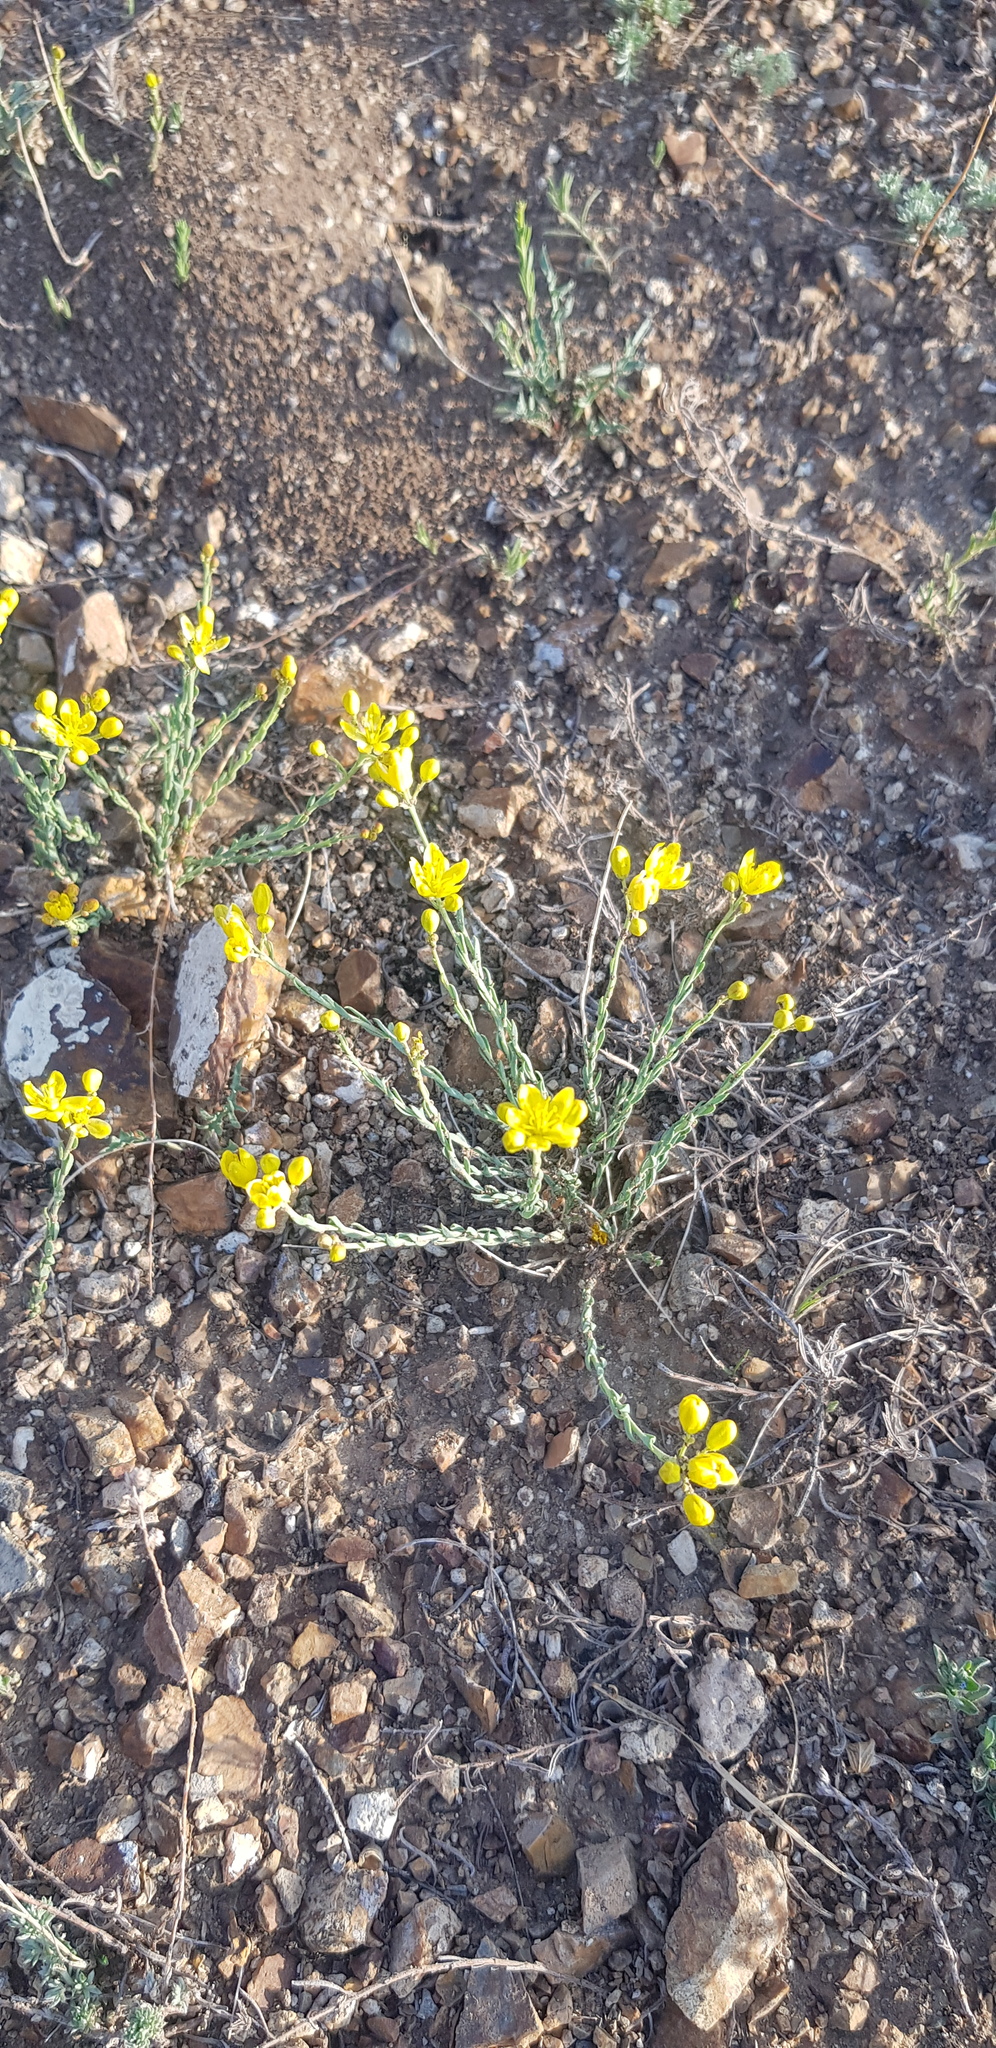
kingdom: Plantae
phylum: Tracheophyta
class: Magnoliopsida
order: Sapindales
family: Rutaceae
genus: Haplophyllum
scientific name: Haplophyllum dauricum
